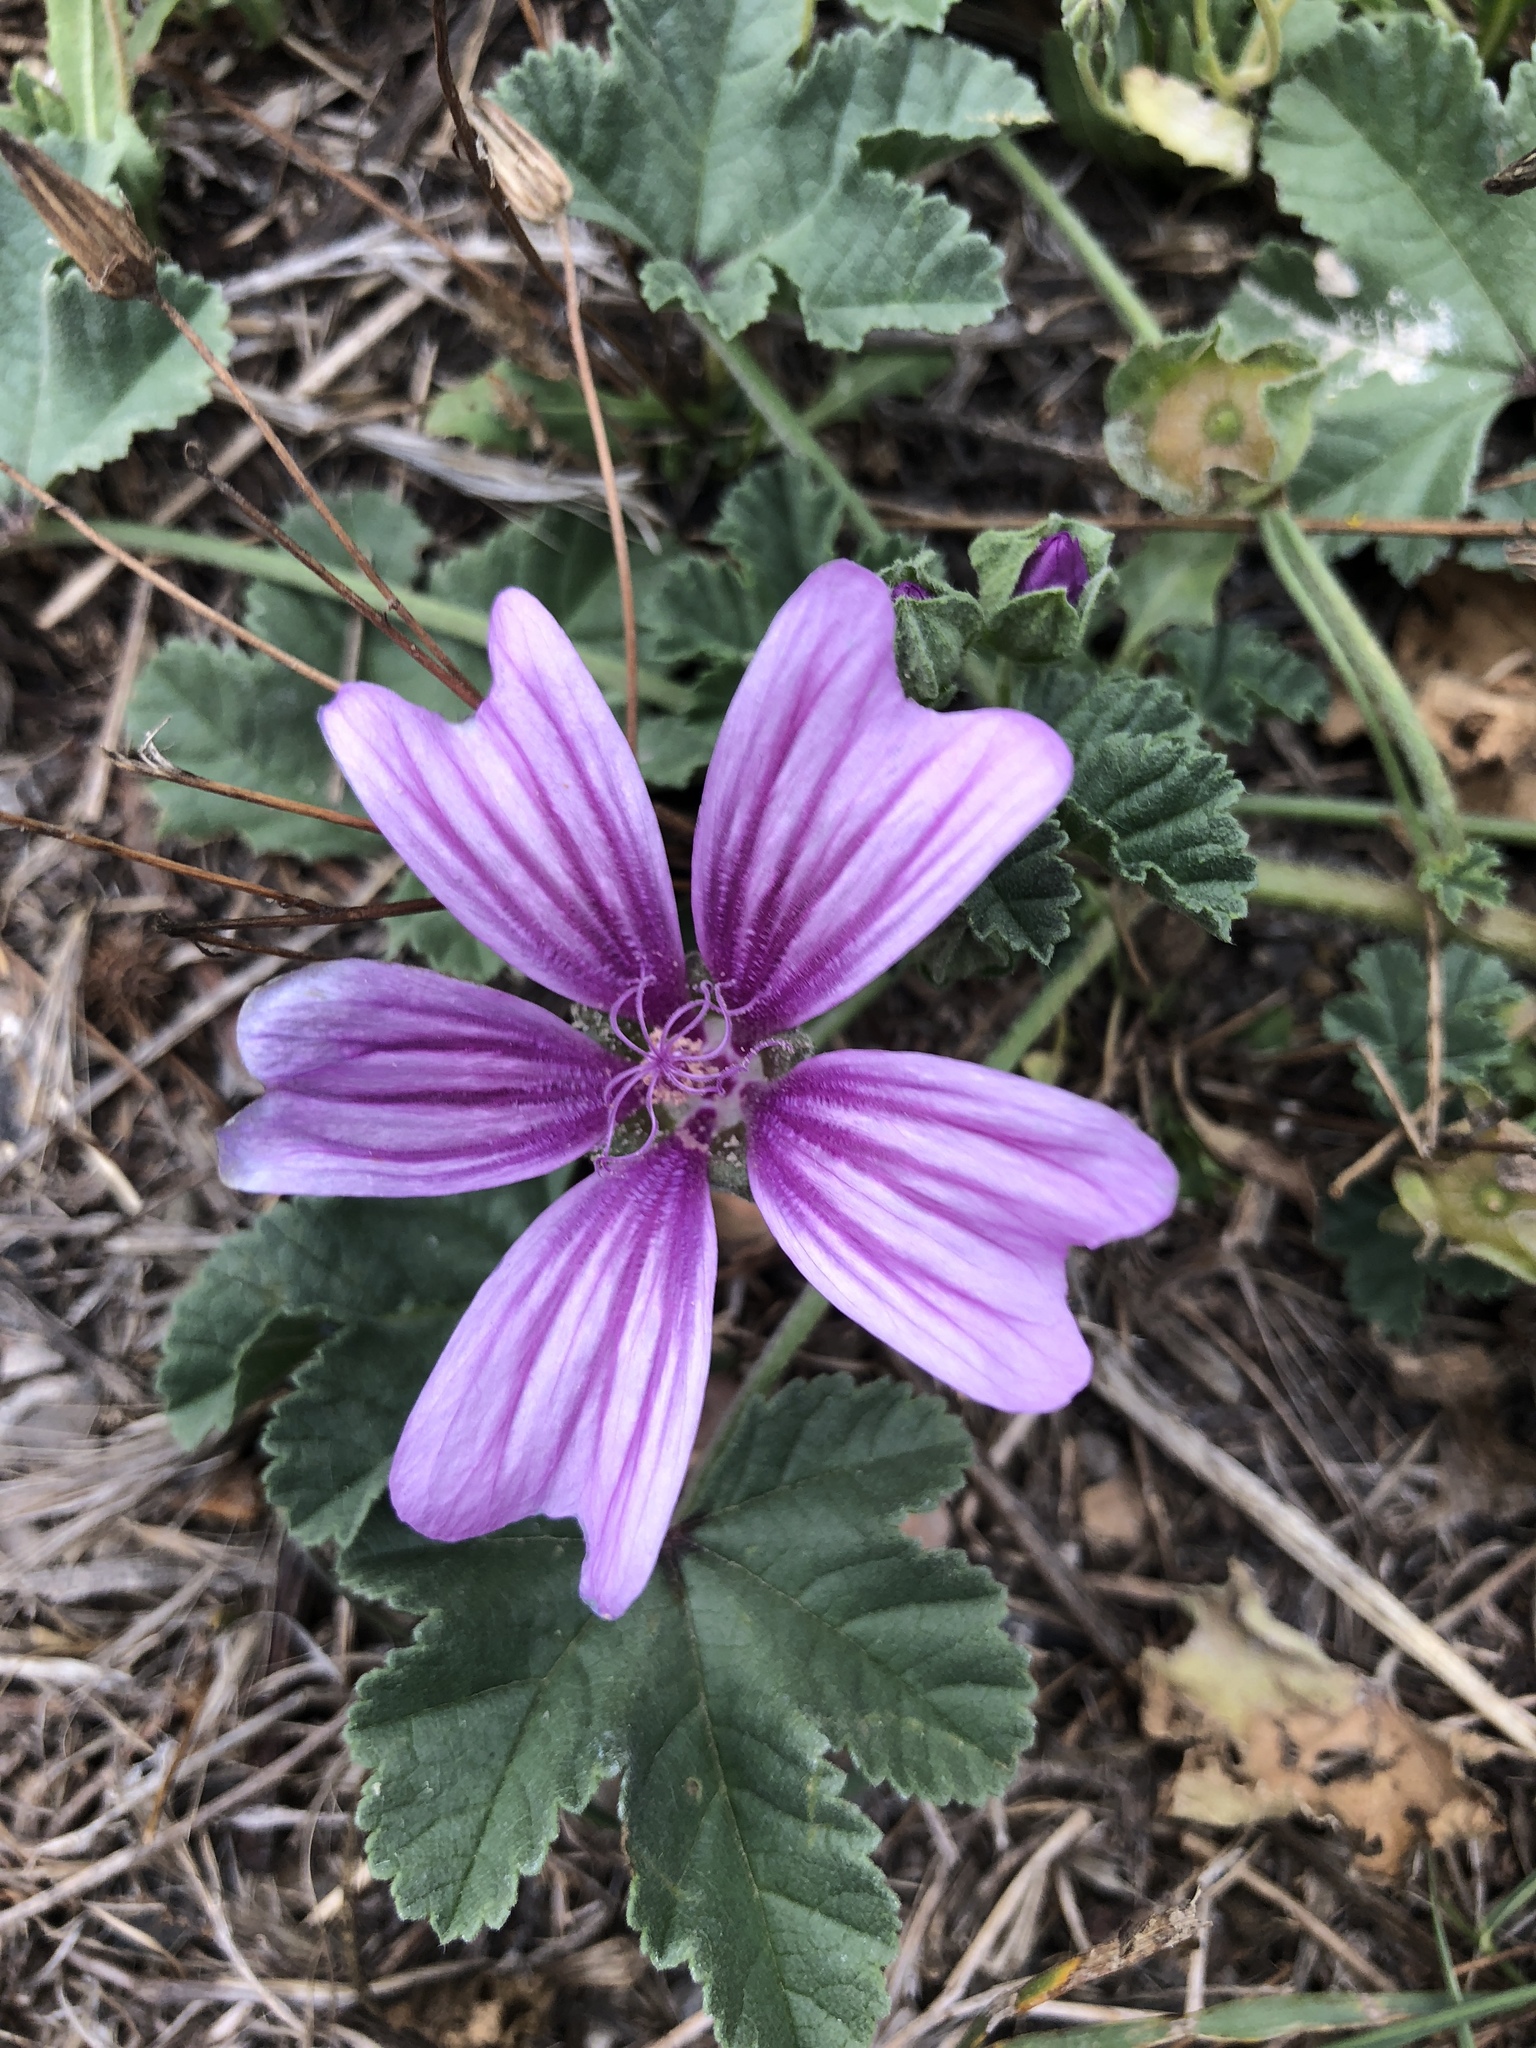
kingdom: Plantae
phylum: Tracheophyta
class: Magnoliopsida
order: Malvales
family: Malvaceae
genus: Malva
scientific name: Malva sylvestris
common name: Common mallow
